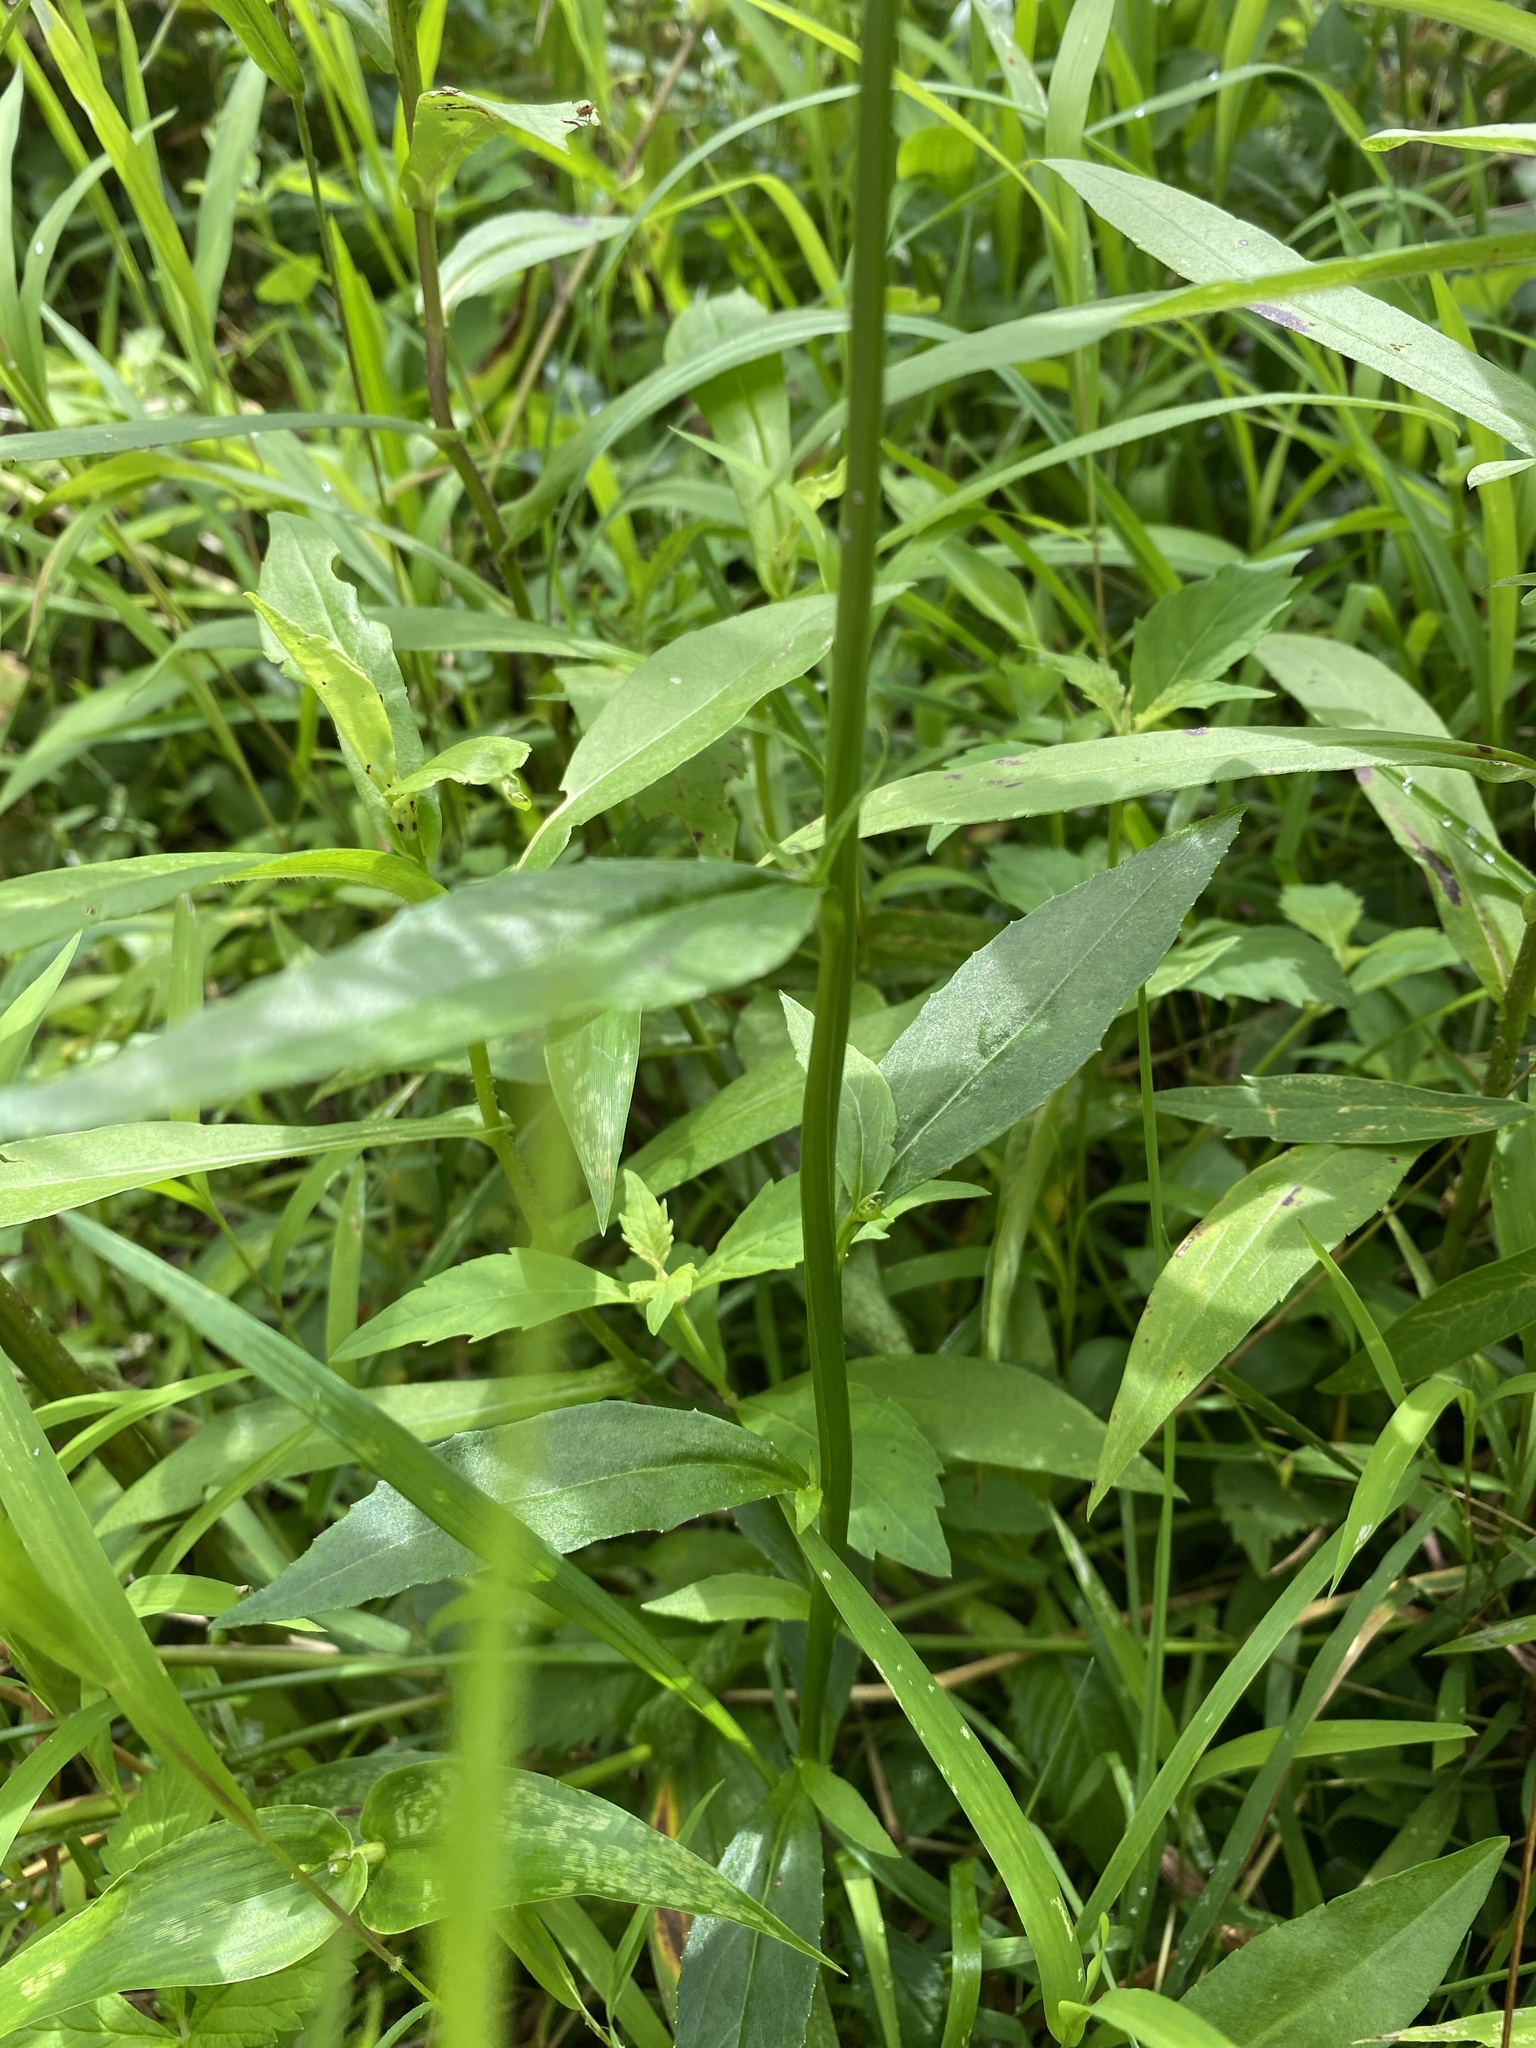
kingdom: Plantae
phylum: Tracheophyta
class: Magnoliopsida
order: Asterales
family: Campanulaceae
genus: Lobelia
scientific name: Lobelia amoena
